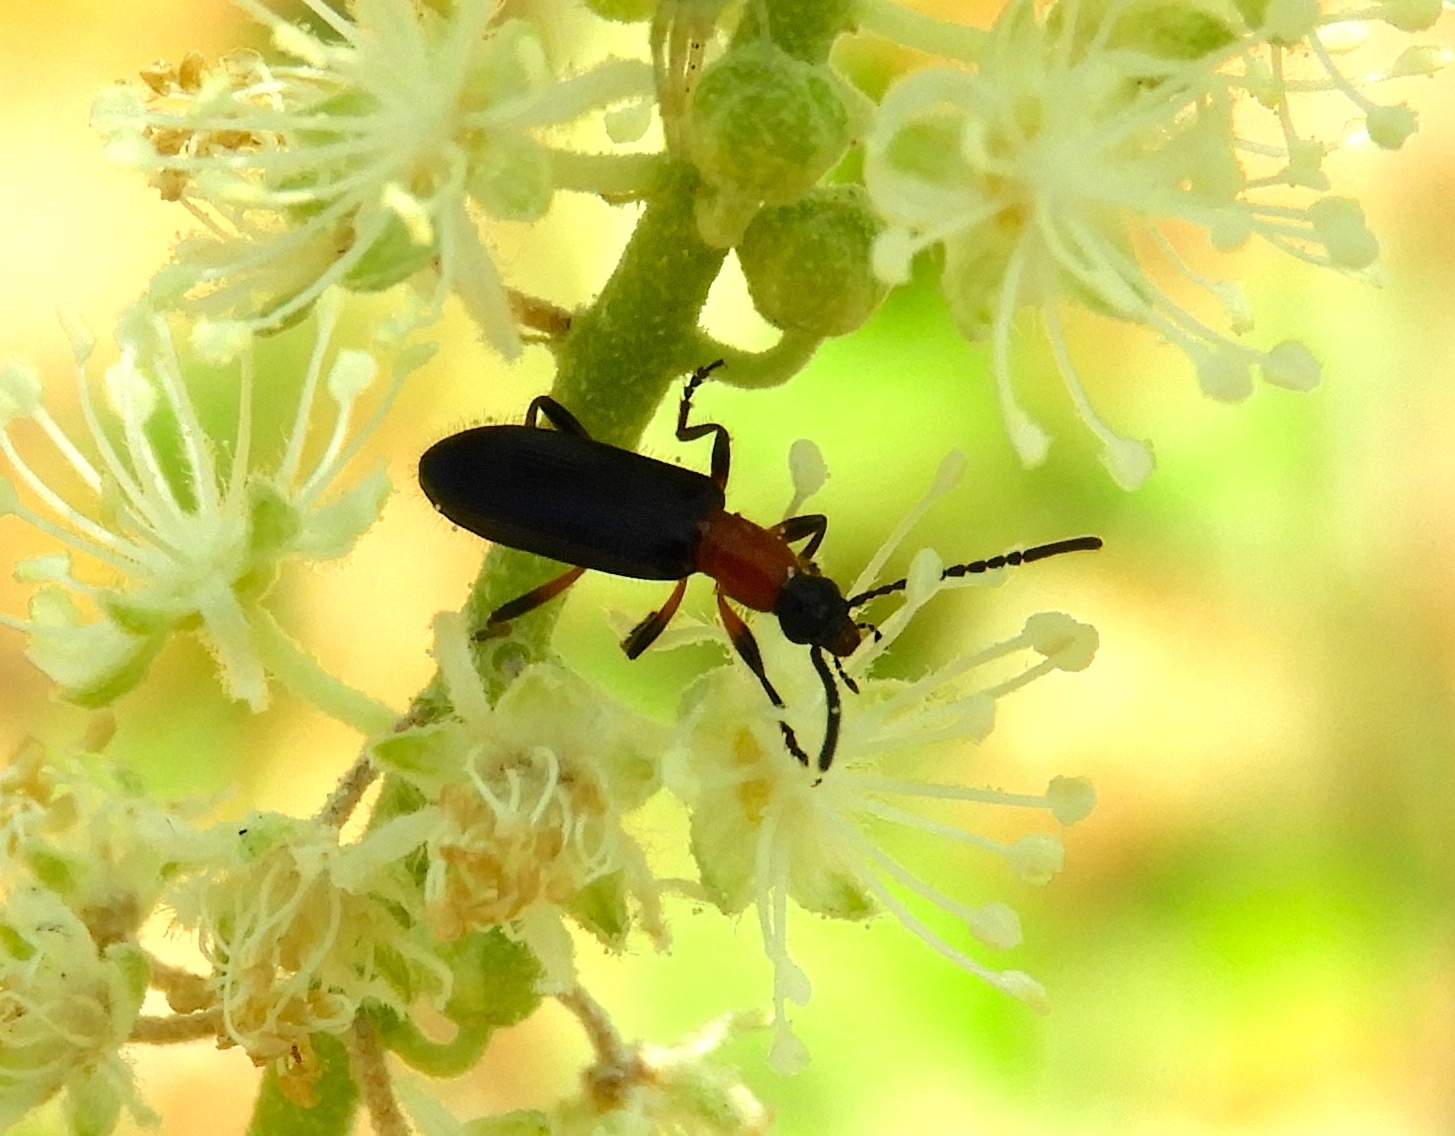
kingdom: Animalia
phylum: Arthropoda
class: Insecta
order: Coleoptera
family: Tenebrionidae
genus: Statira
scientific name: Statira
